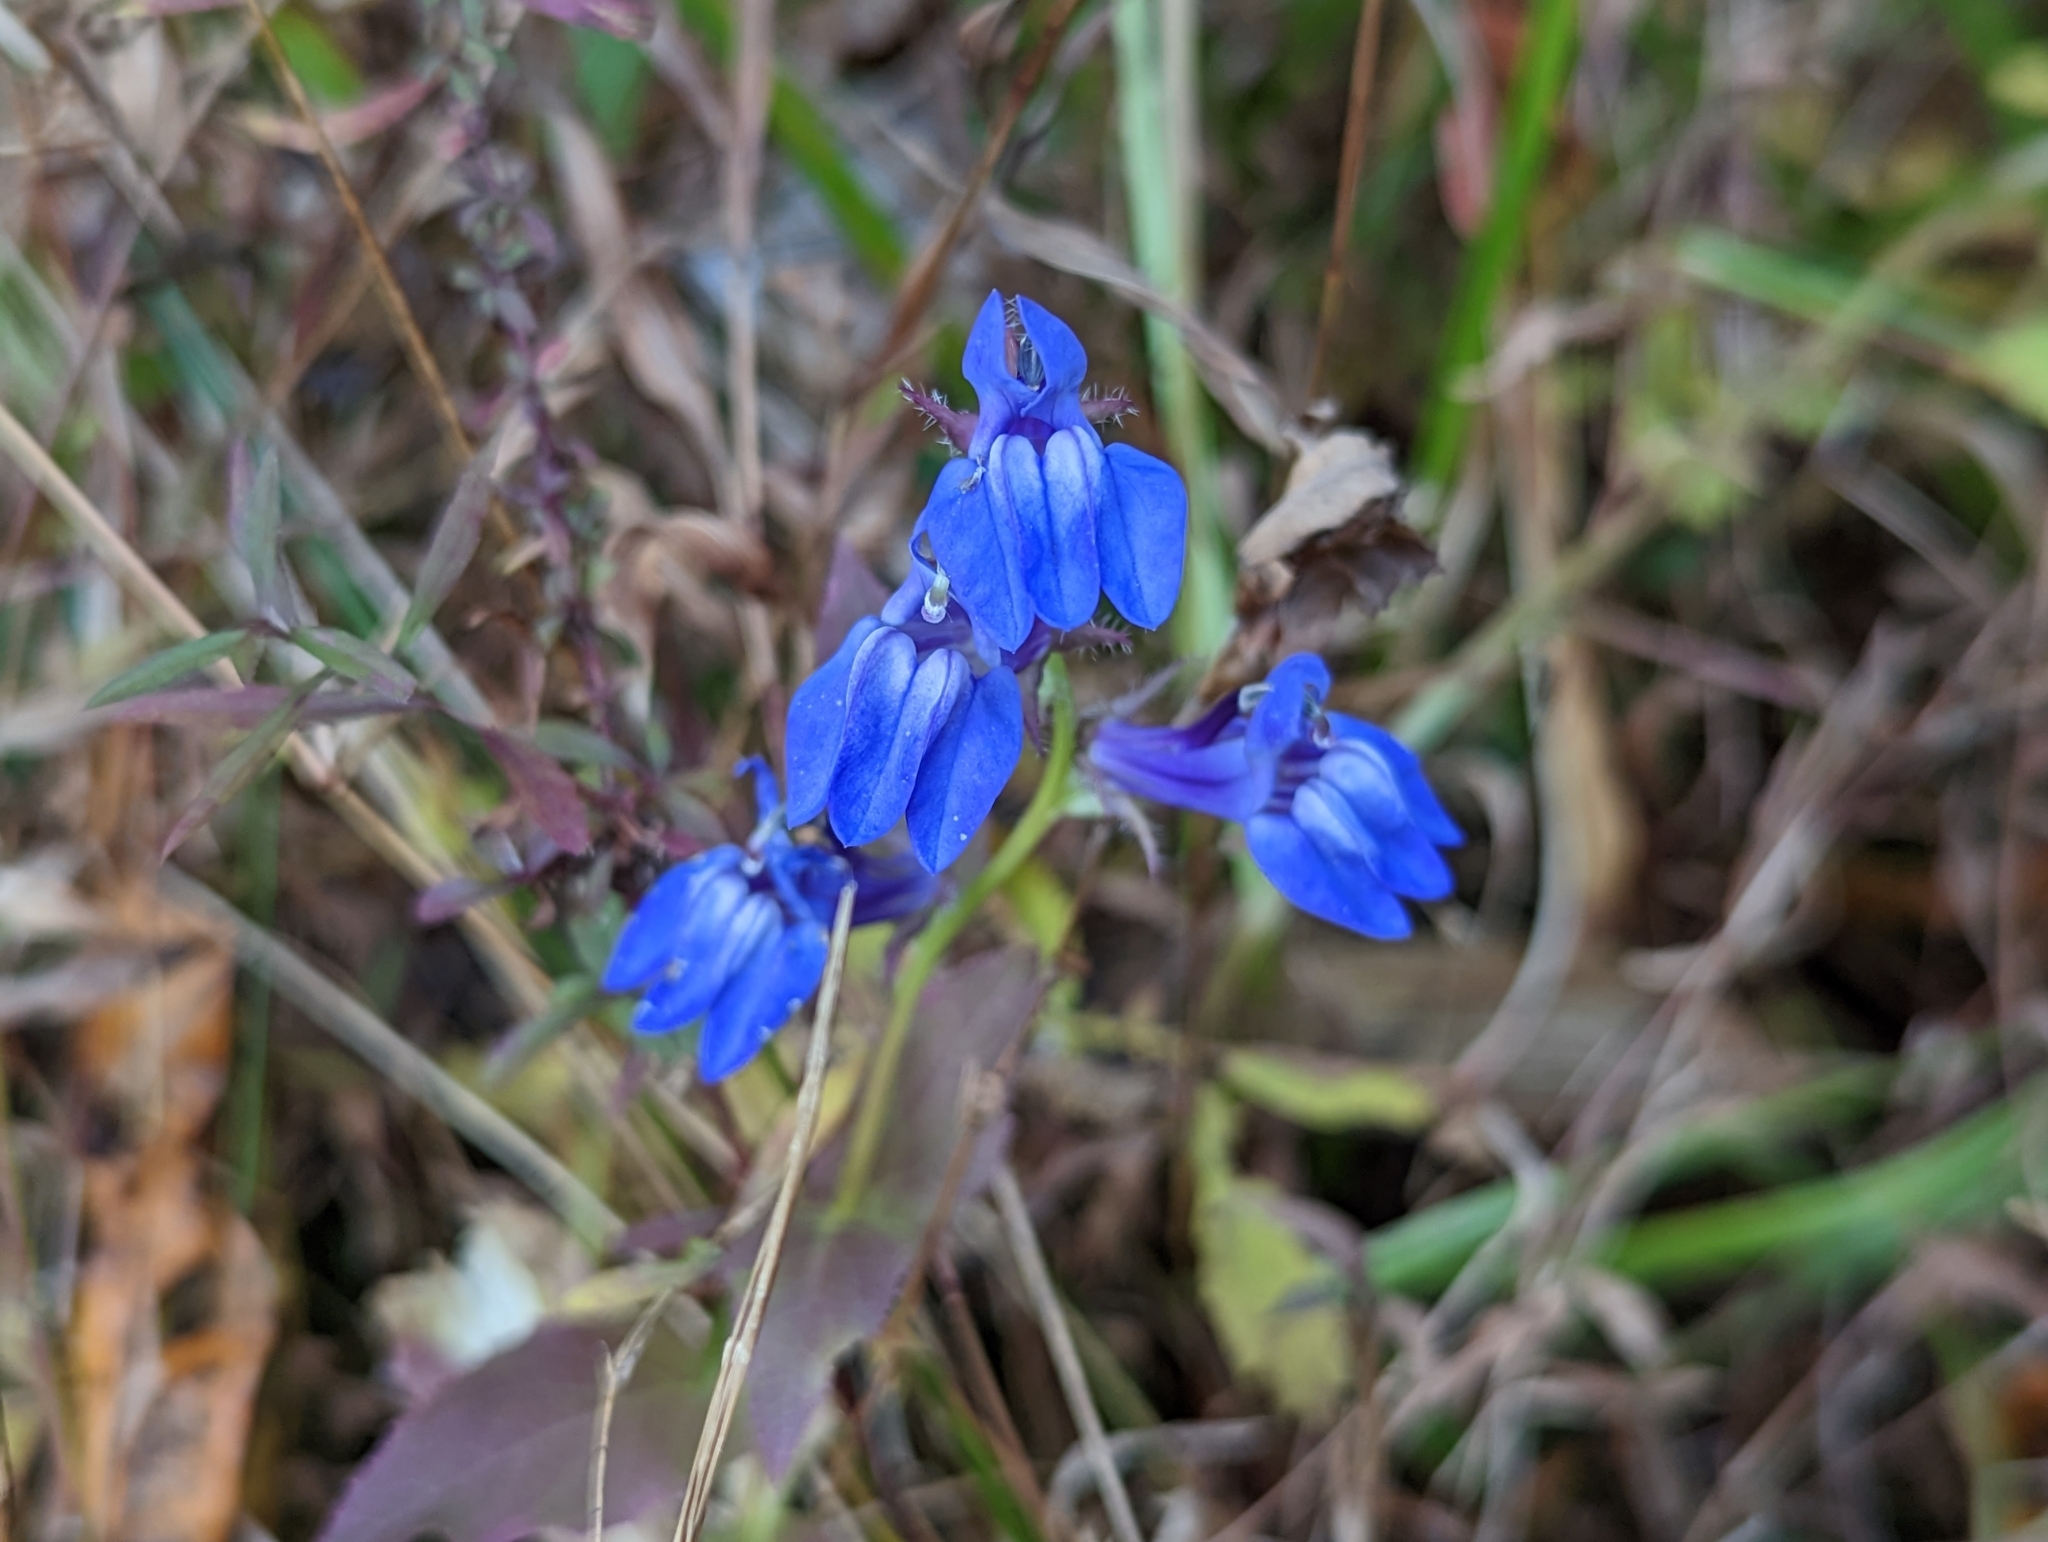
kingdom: Plantae
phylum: Tracheophyta
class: Magnoliopsida
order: Asterales
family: Campanulaceae
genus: Lobelia
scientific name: Lobelia siphilitica
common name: Great lobelia
